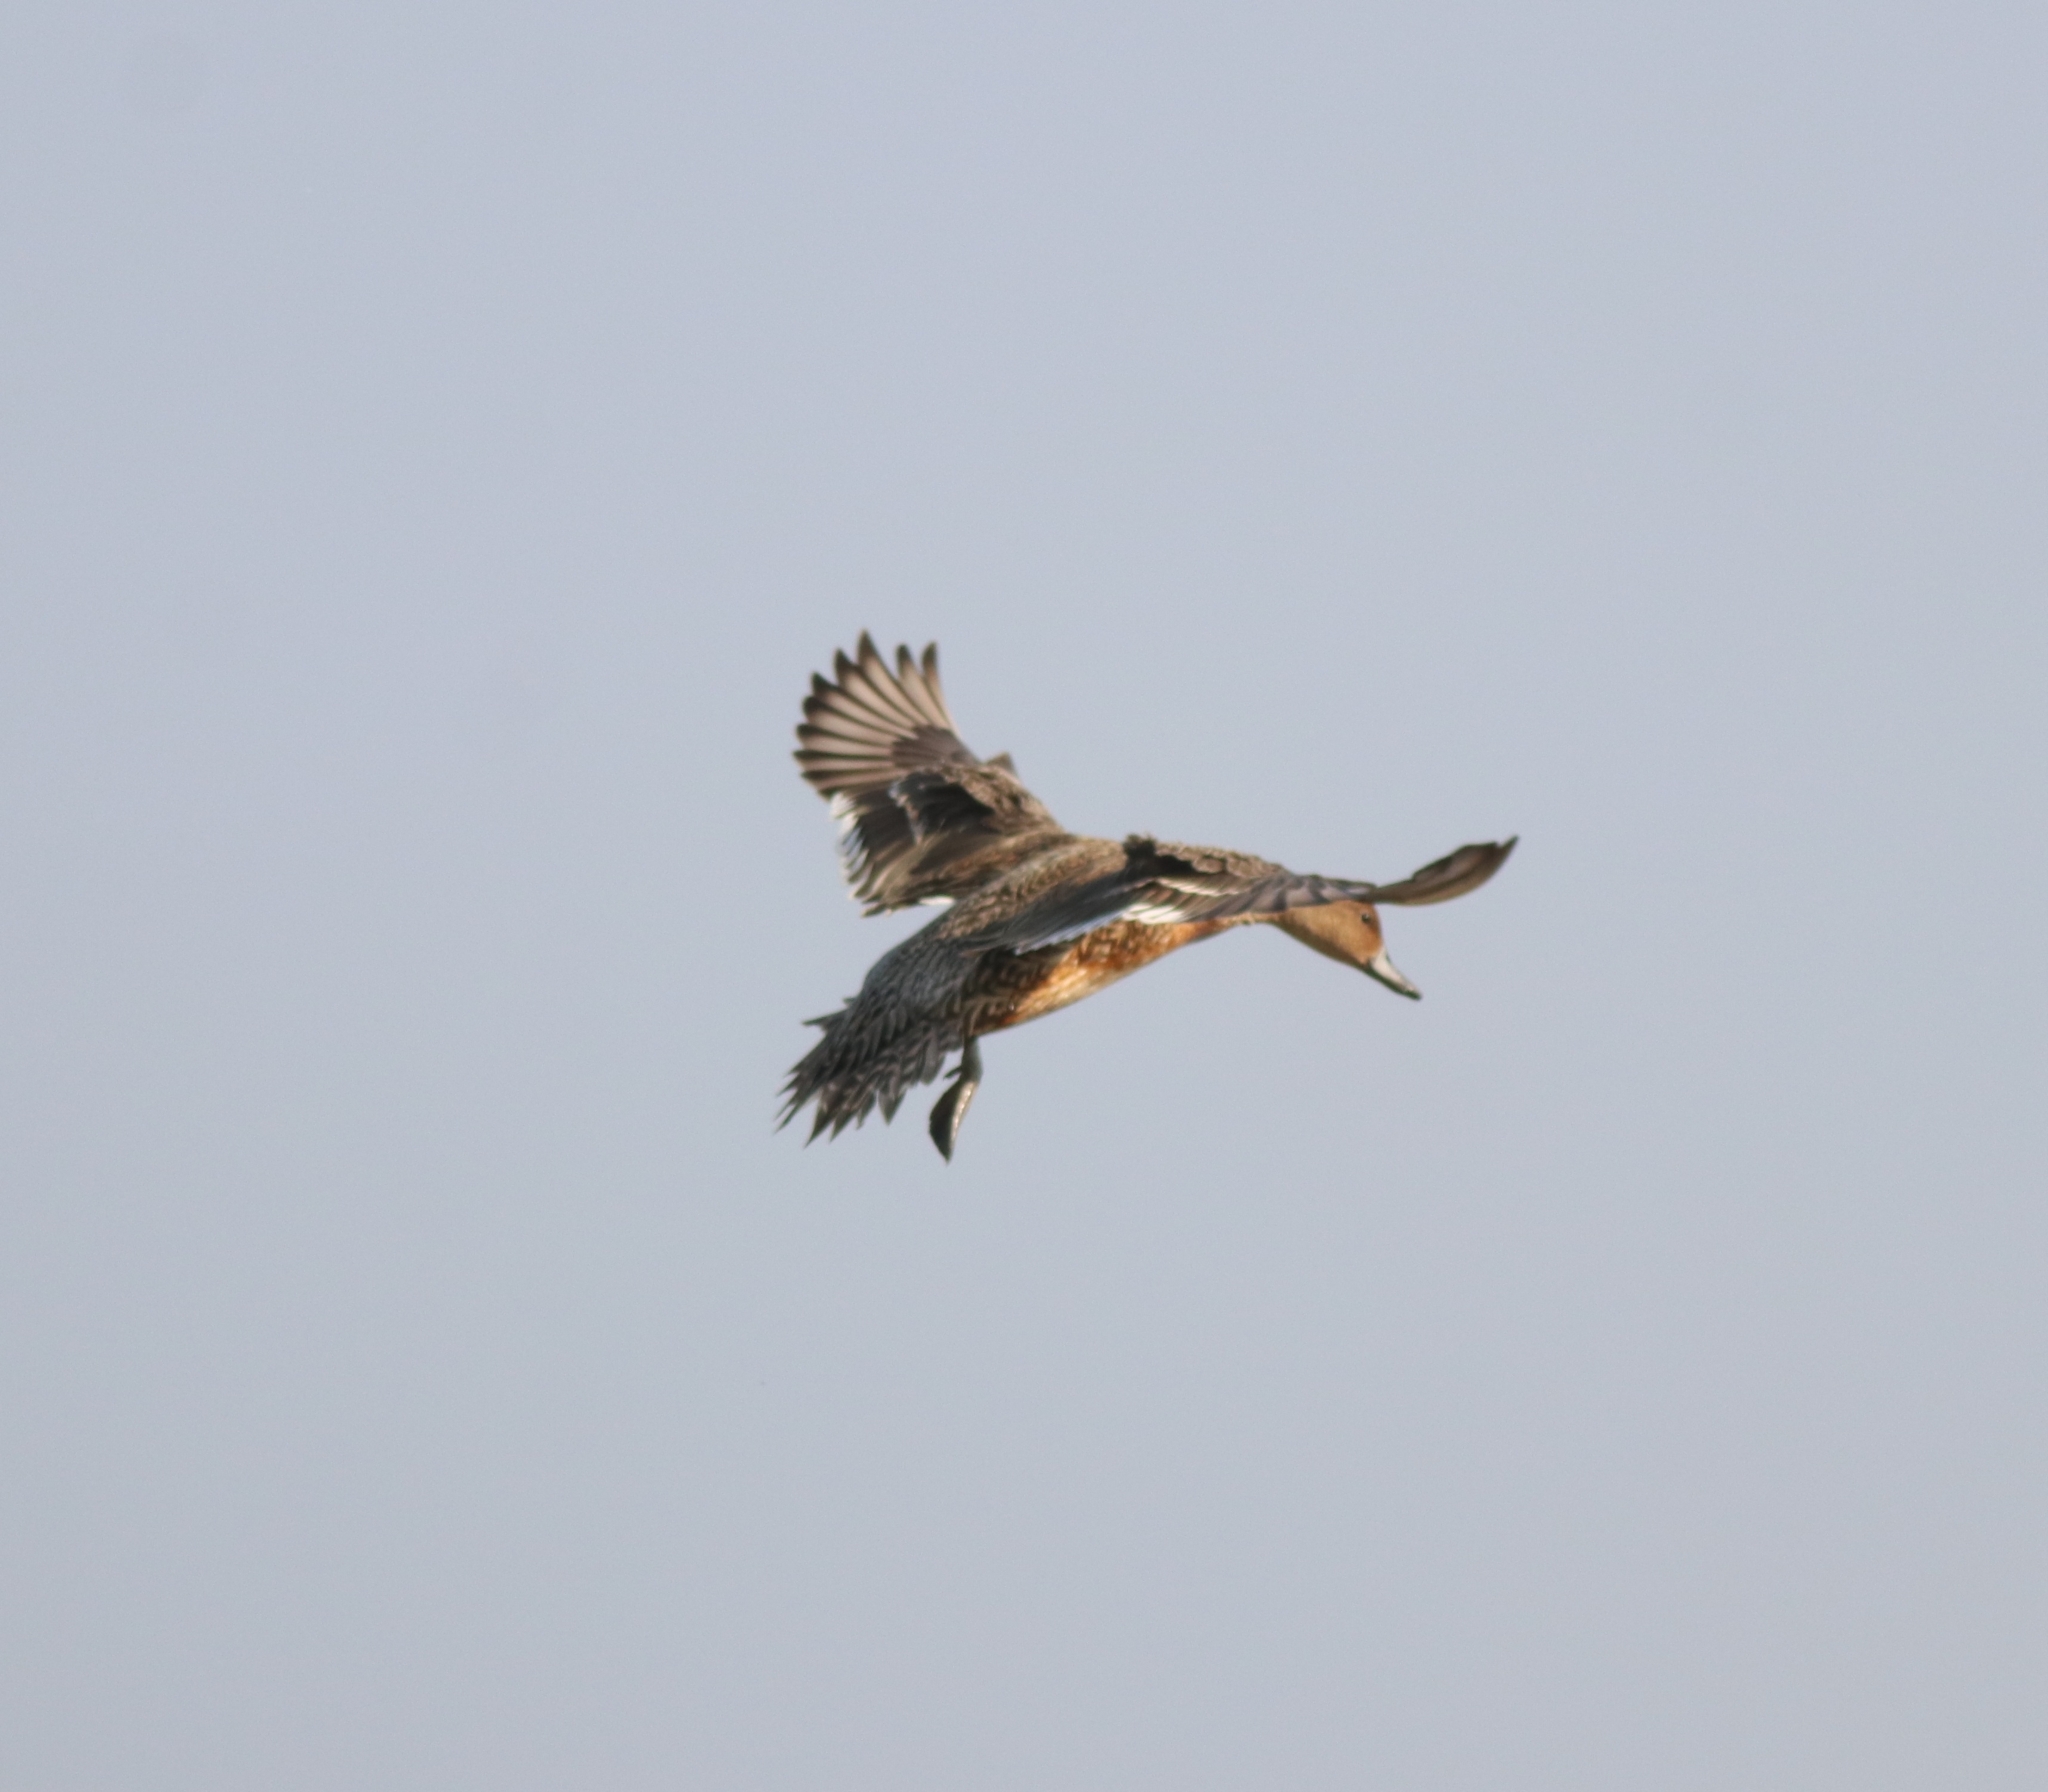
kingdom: Animalia
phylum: Chordata
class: Aves
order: Anseriformes
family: Anatidae
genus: Spatula
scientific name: Spatula querquedula
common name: Garganey
